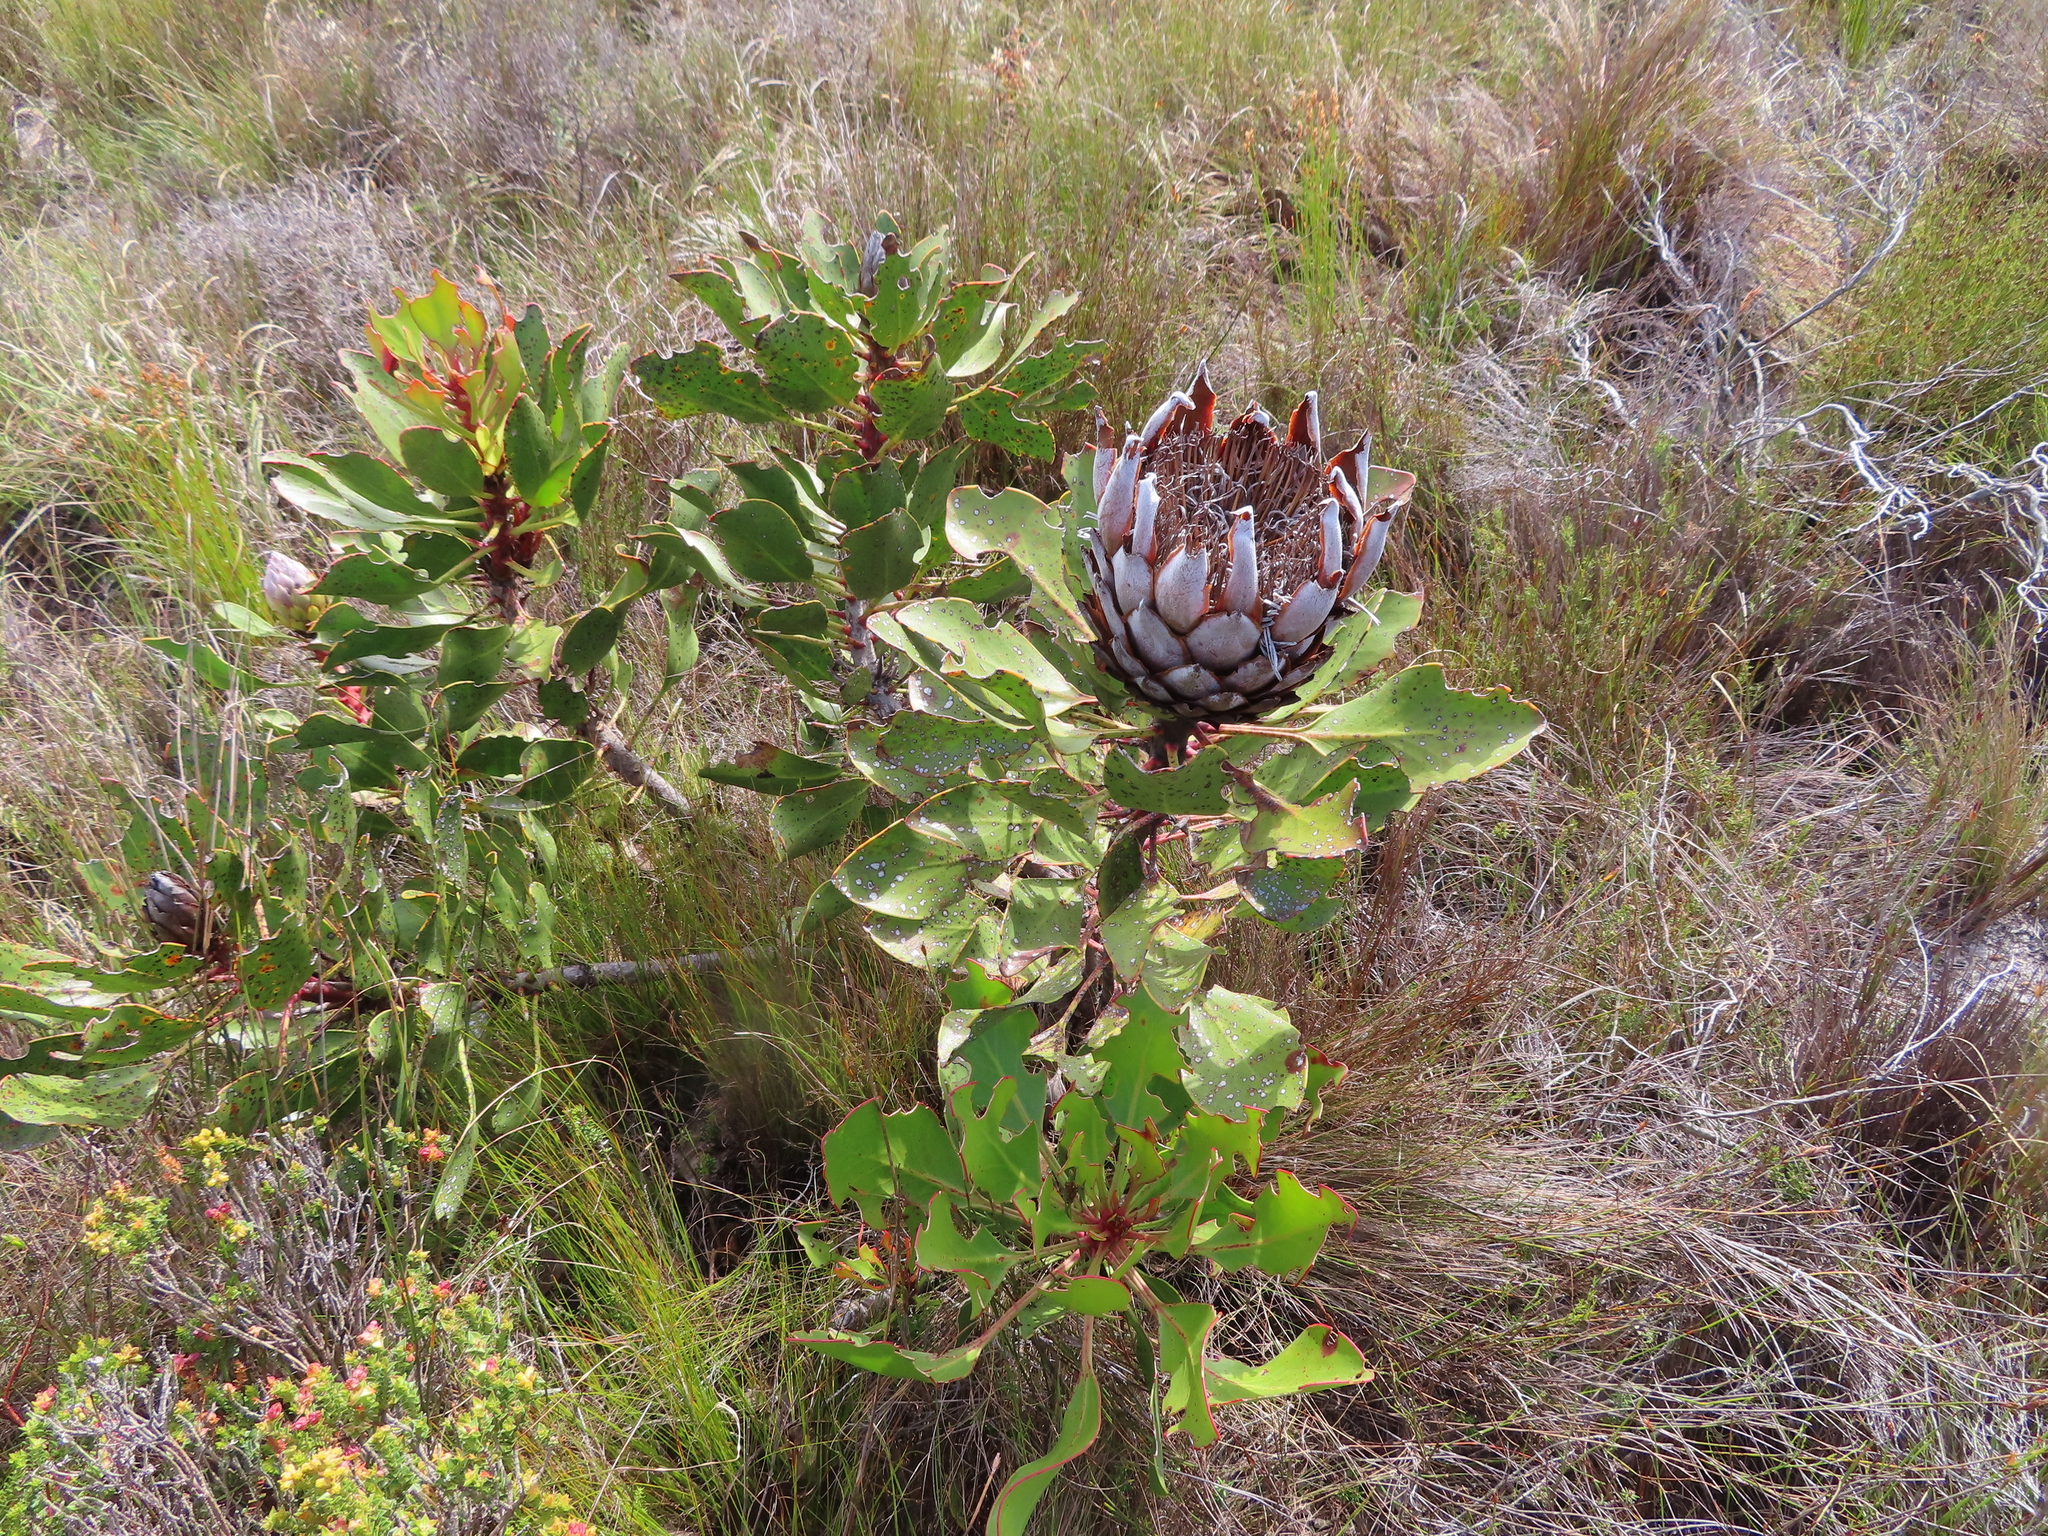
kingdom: Plantae
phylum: Tracheophyta
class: Magnoliopsida
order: Proteales
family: Proteaceae
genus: Protea
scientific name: Protea cynaroides
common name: King protea
